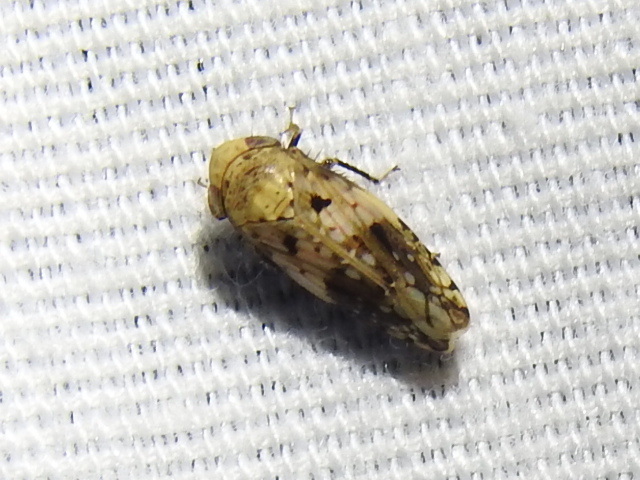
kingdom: Animalia
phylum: Arthropoda
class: Insecta
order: Hemiptera
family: Cicadellidae
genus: Menosoma
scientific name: Menosoma cinctum
